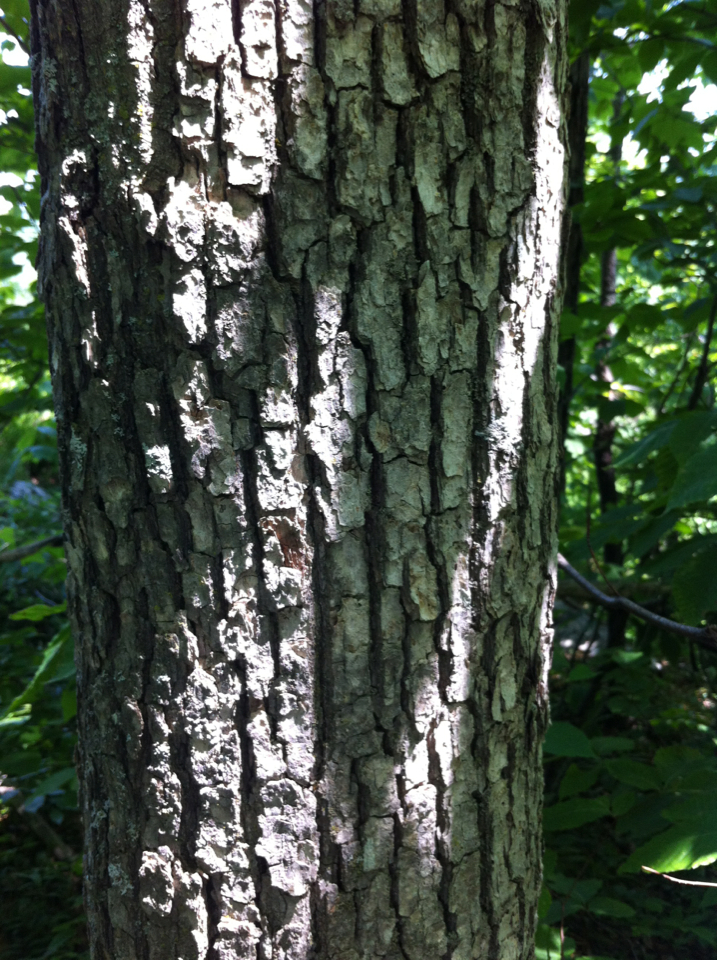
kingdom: Plantae
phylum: Tracheophyta
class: Magnoliopsida
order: Fagales
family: Fagaceae
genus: Quercus
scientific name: Quercus alba
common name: White oak
